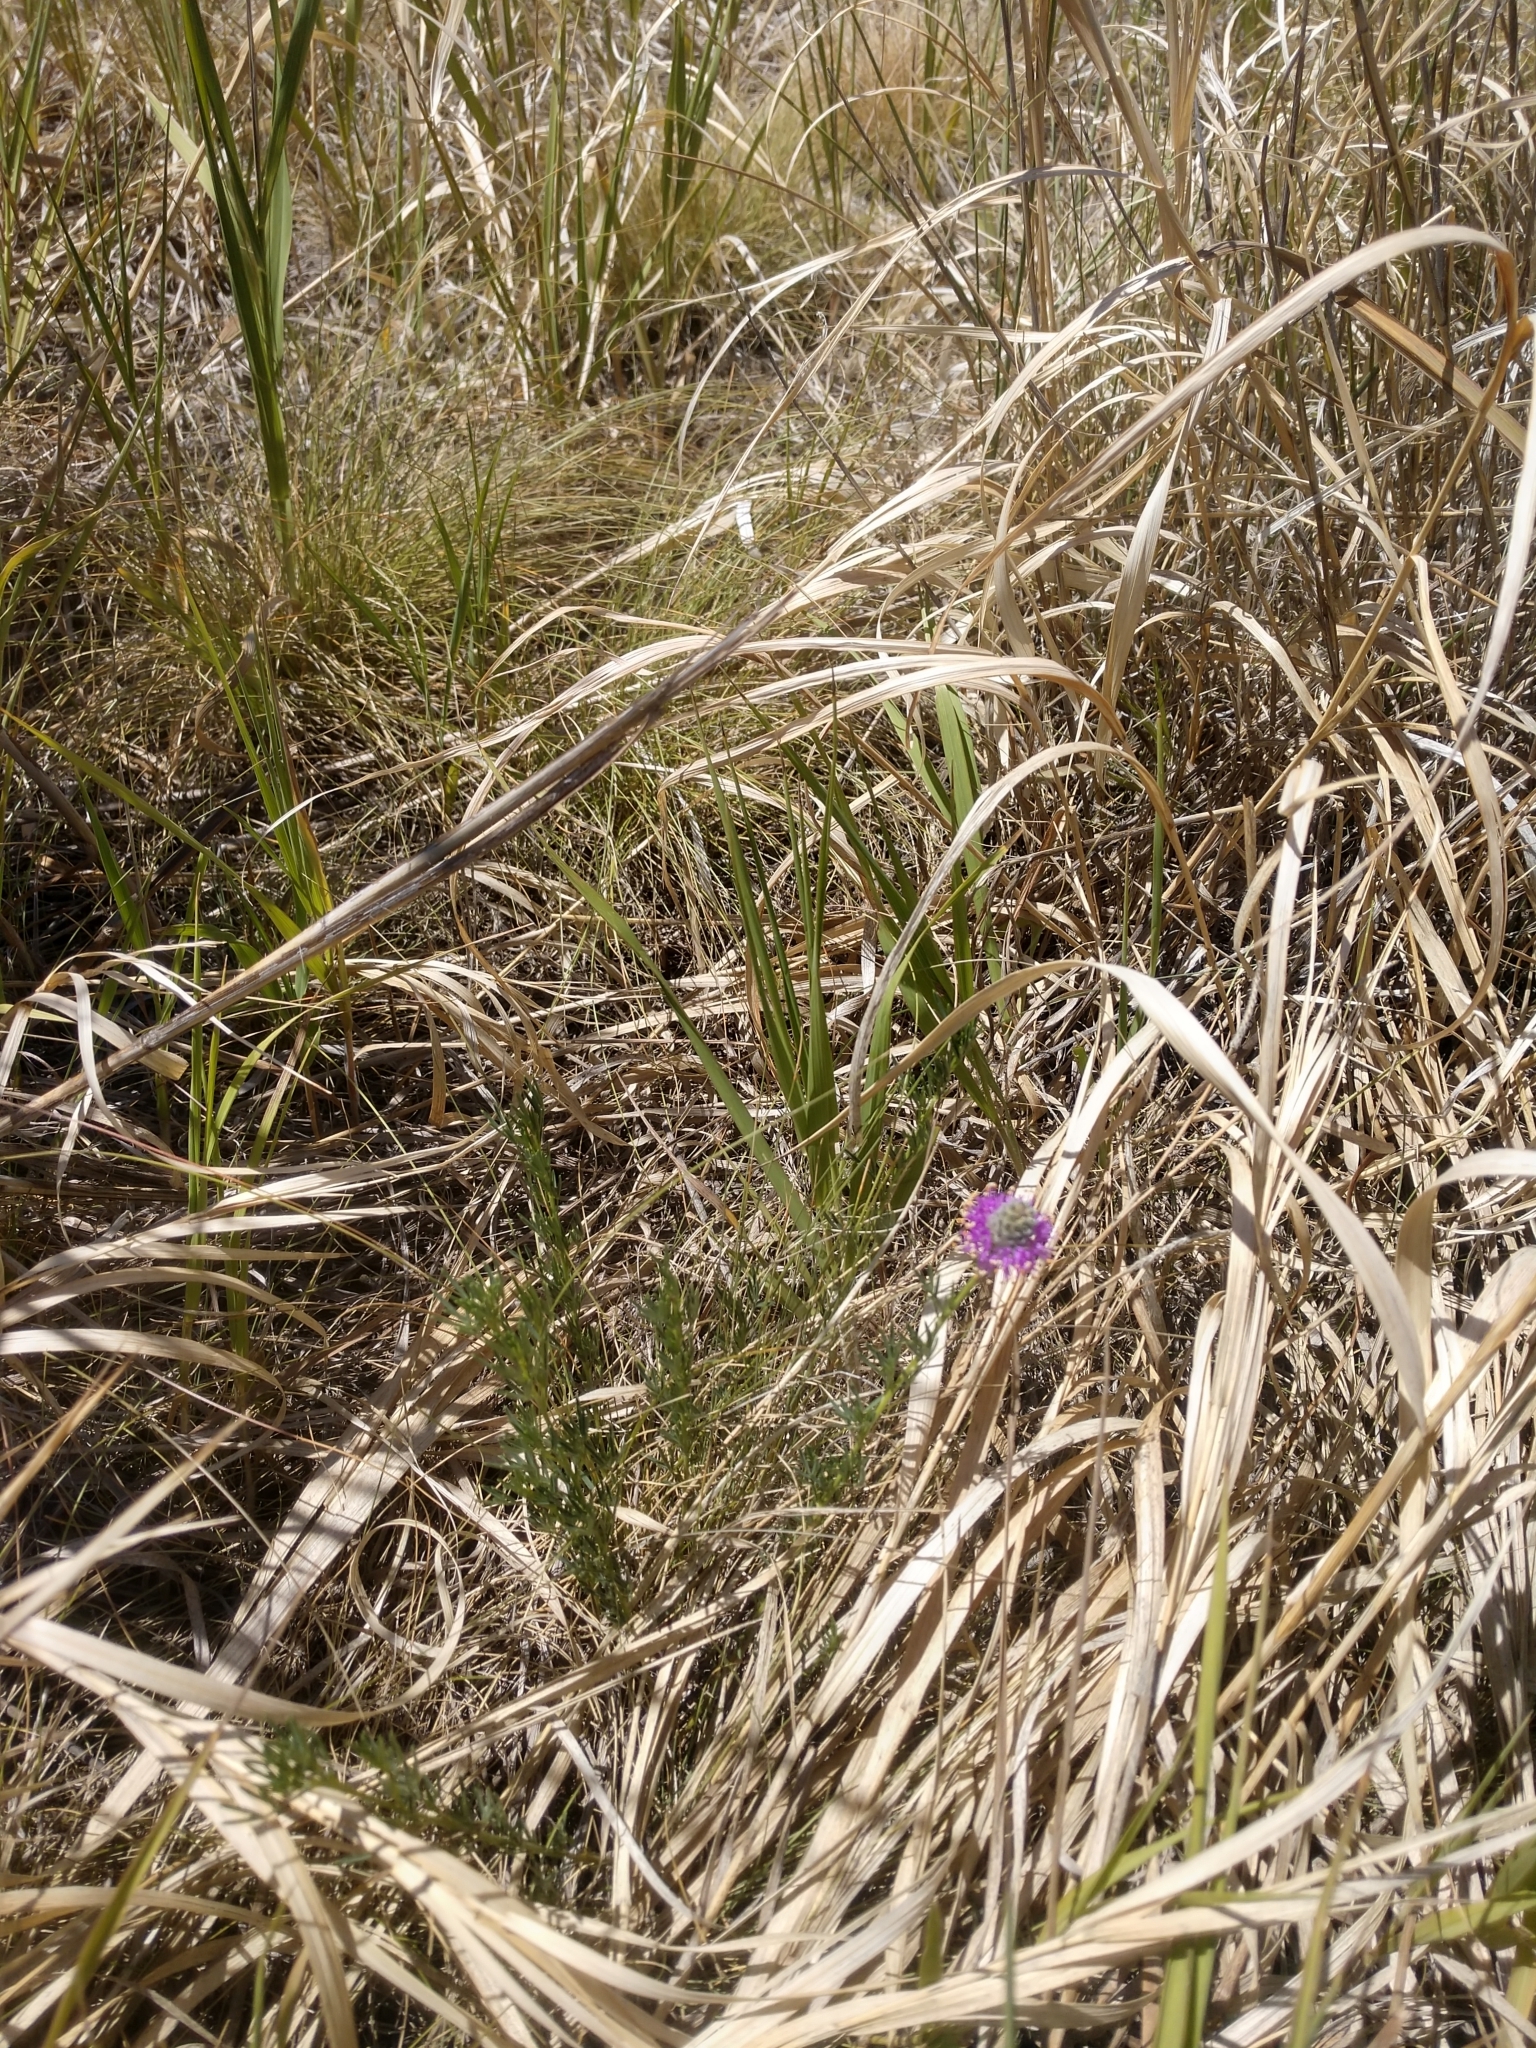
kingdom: Plantae
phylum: Tracheophyta
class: Magnoliopsida
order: Fabales
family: Fabaceae
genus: Dalea
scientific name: Dalea purpurea
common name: Purple prairie-clover
